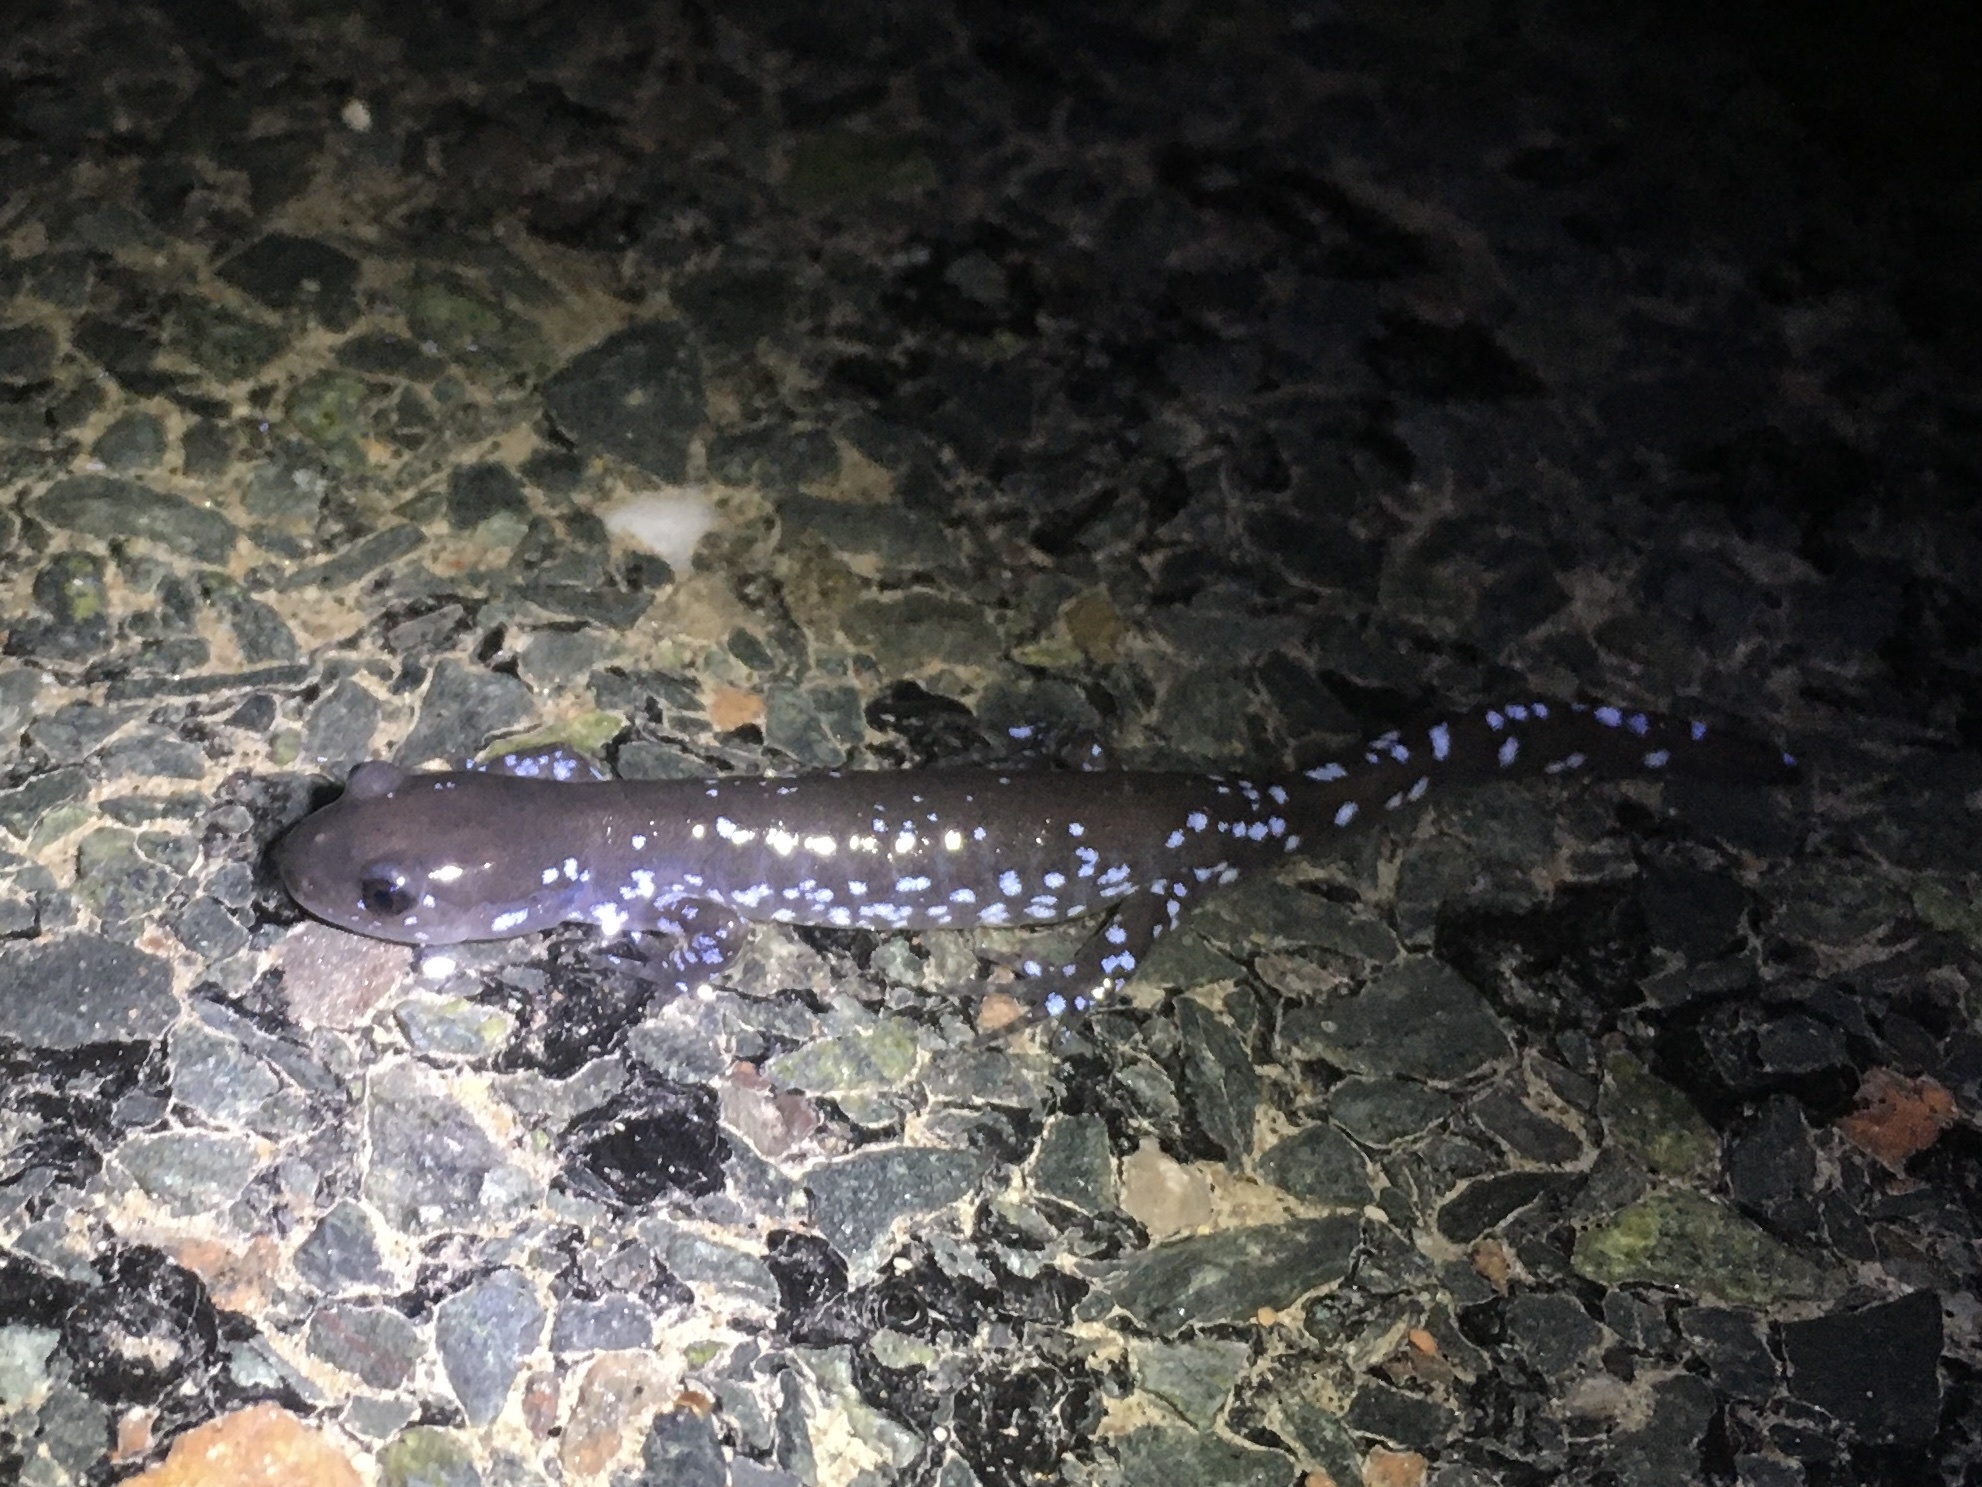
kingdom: Animalia
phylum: Chordata
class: Amphibia
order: Caudata
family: Ambystomatidae
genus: Ambystoma
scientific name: Ambystoma laterale
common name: Blue-spotted salamander
